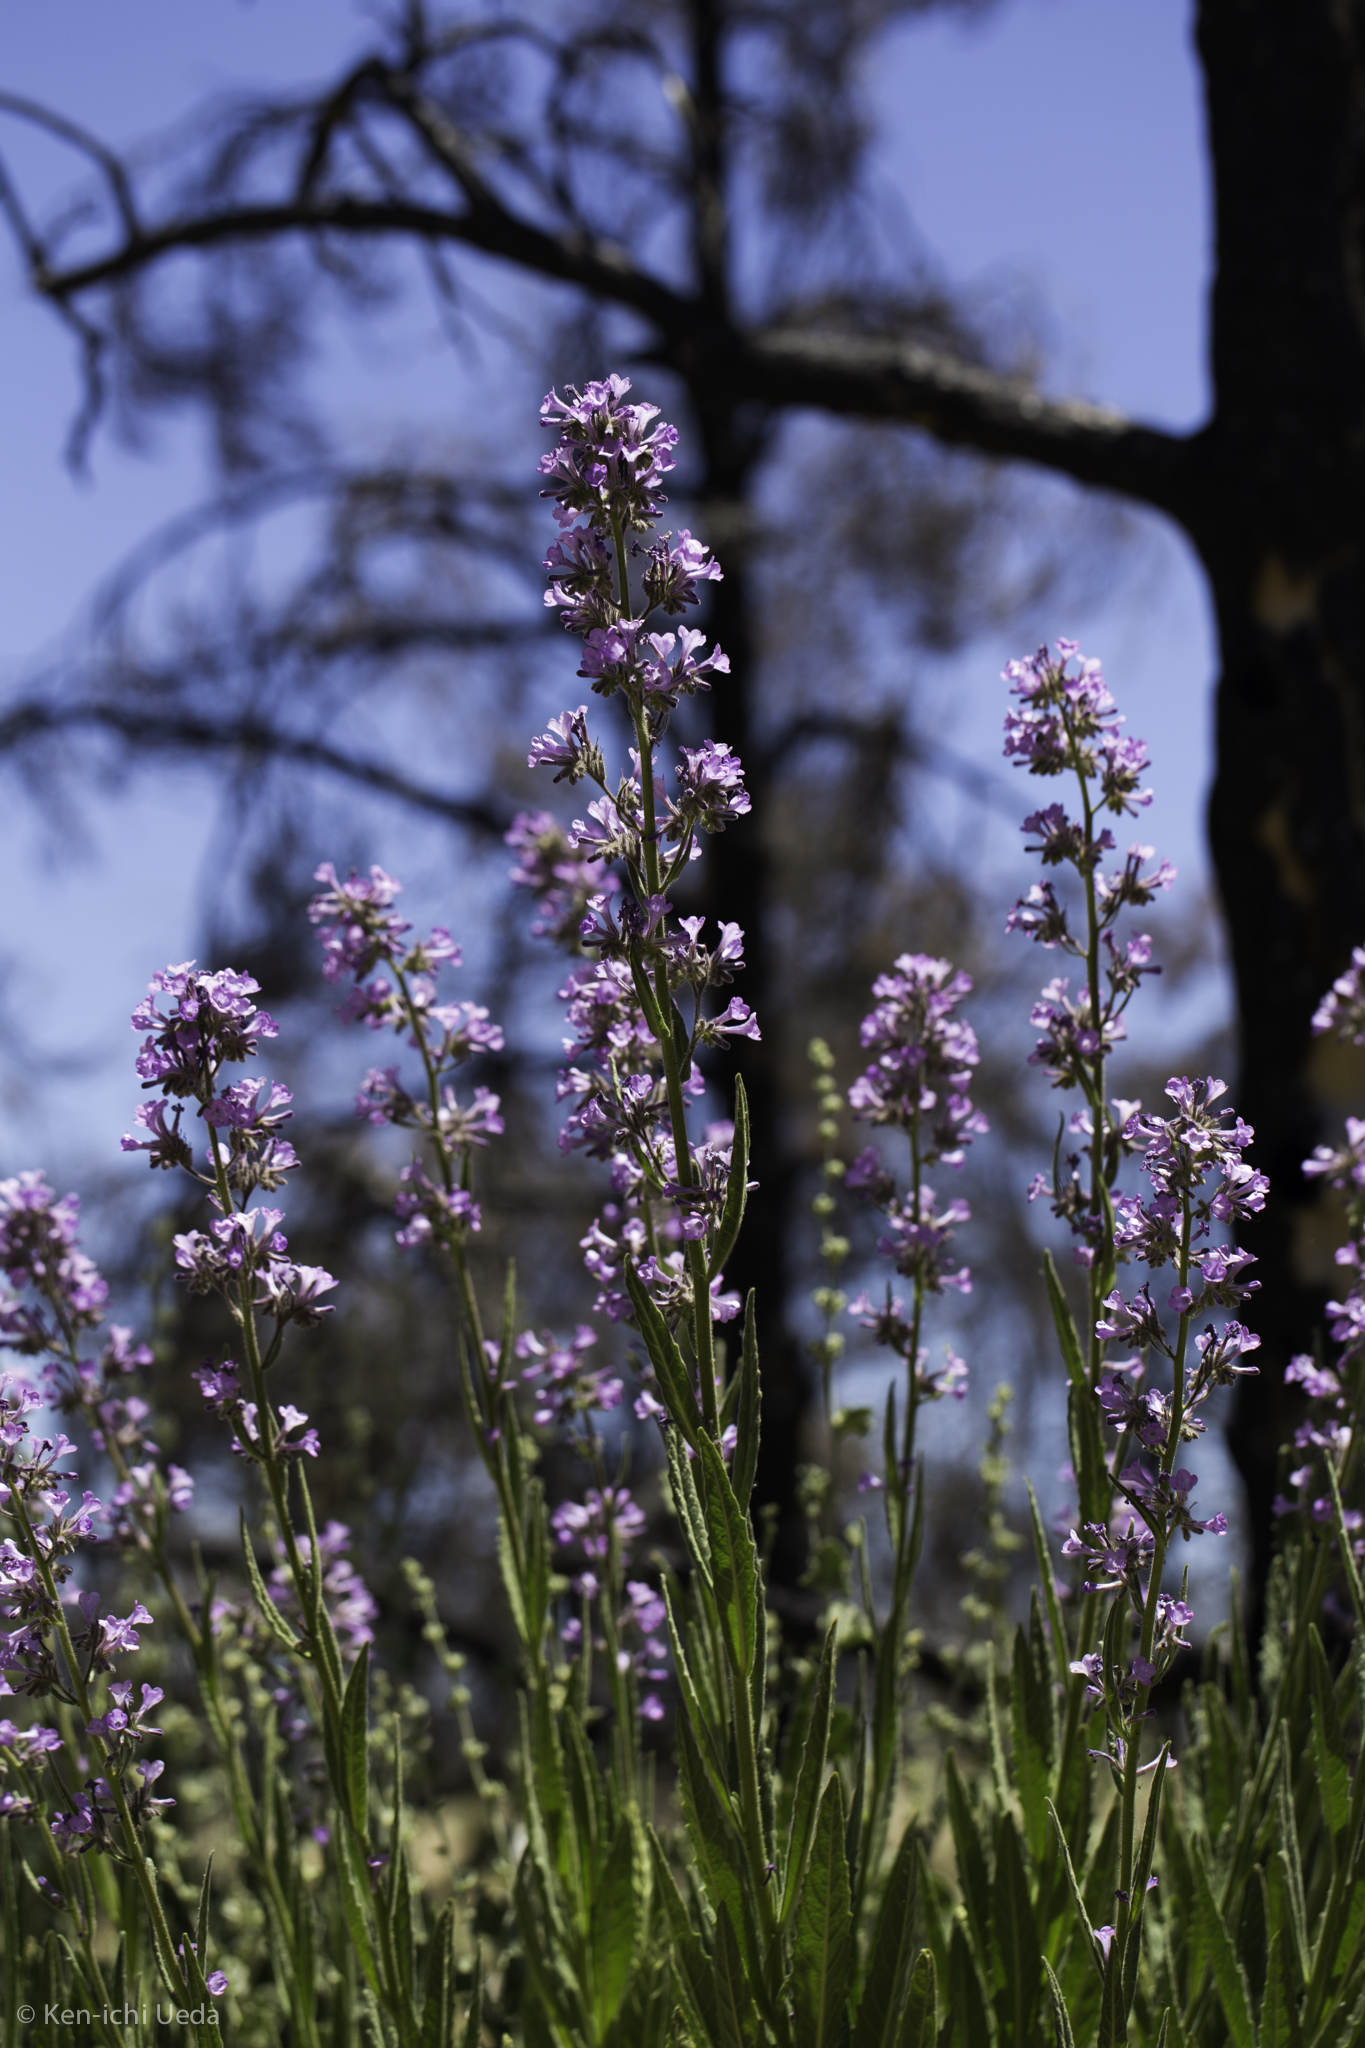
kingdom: Plantae
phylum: Tracheophyta
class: Magnoliopsida
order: Boraginales
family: Namaceae
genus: Turricula
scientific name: Turricula parryi
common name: Poodle-dog-bush
